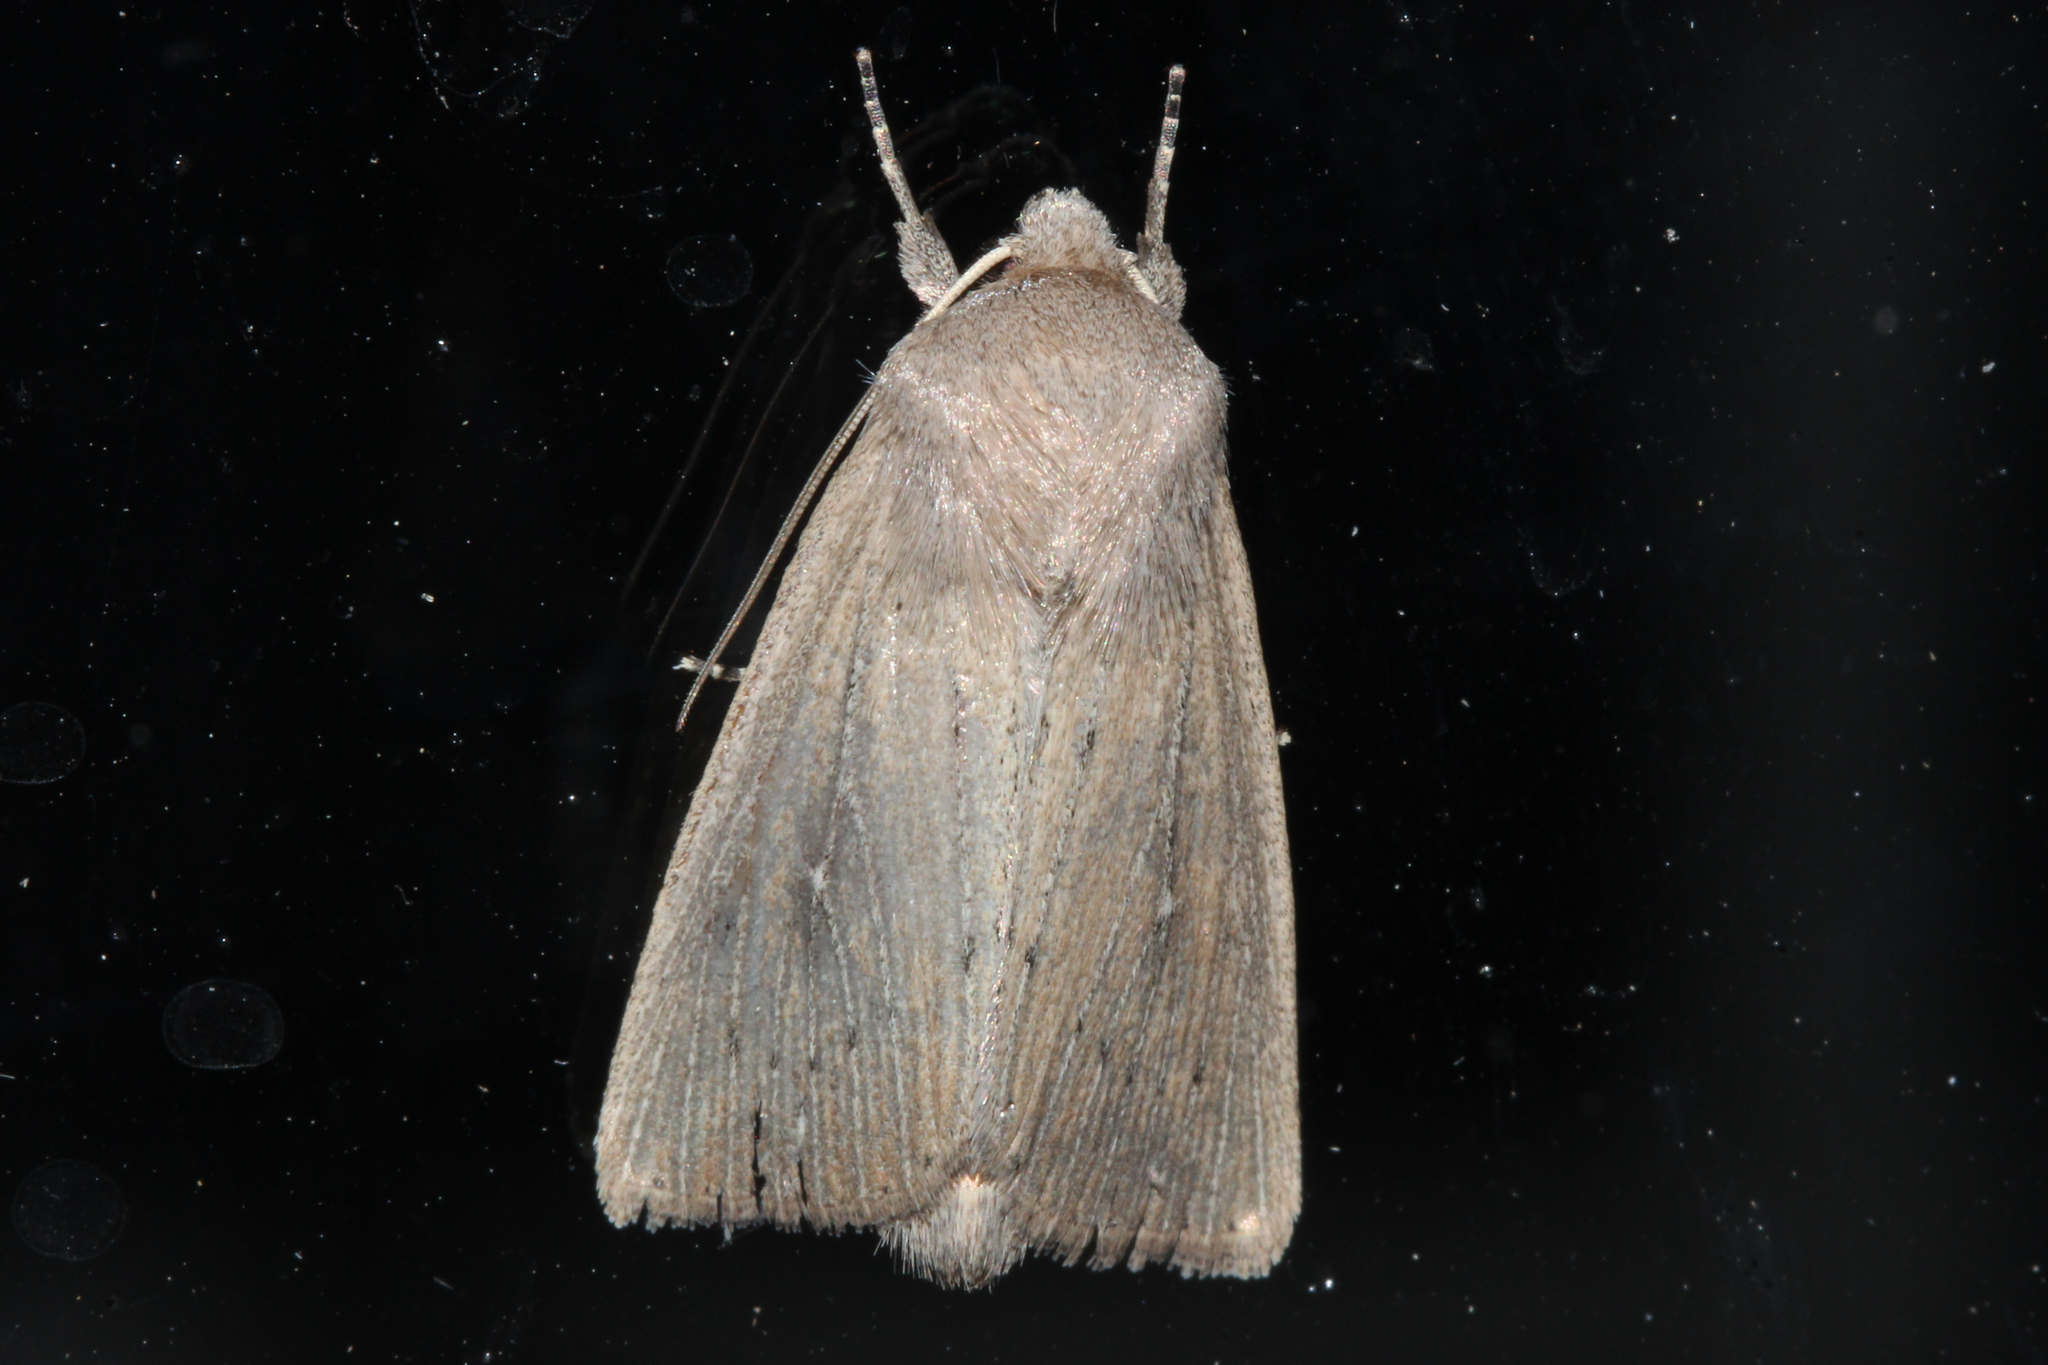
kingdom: Animalia
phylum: Arthropoda
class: Insecta
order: Lepidoptera
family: Noctuidae
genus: Leucania
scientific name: Leucania zeae
